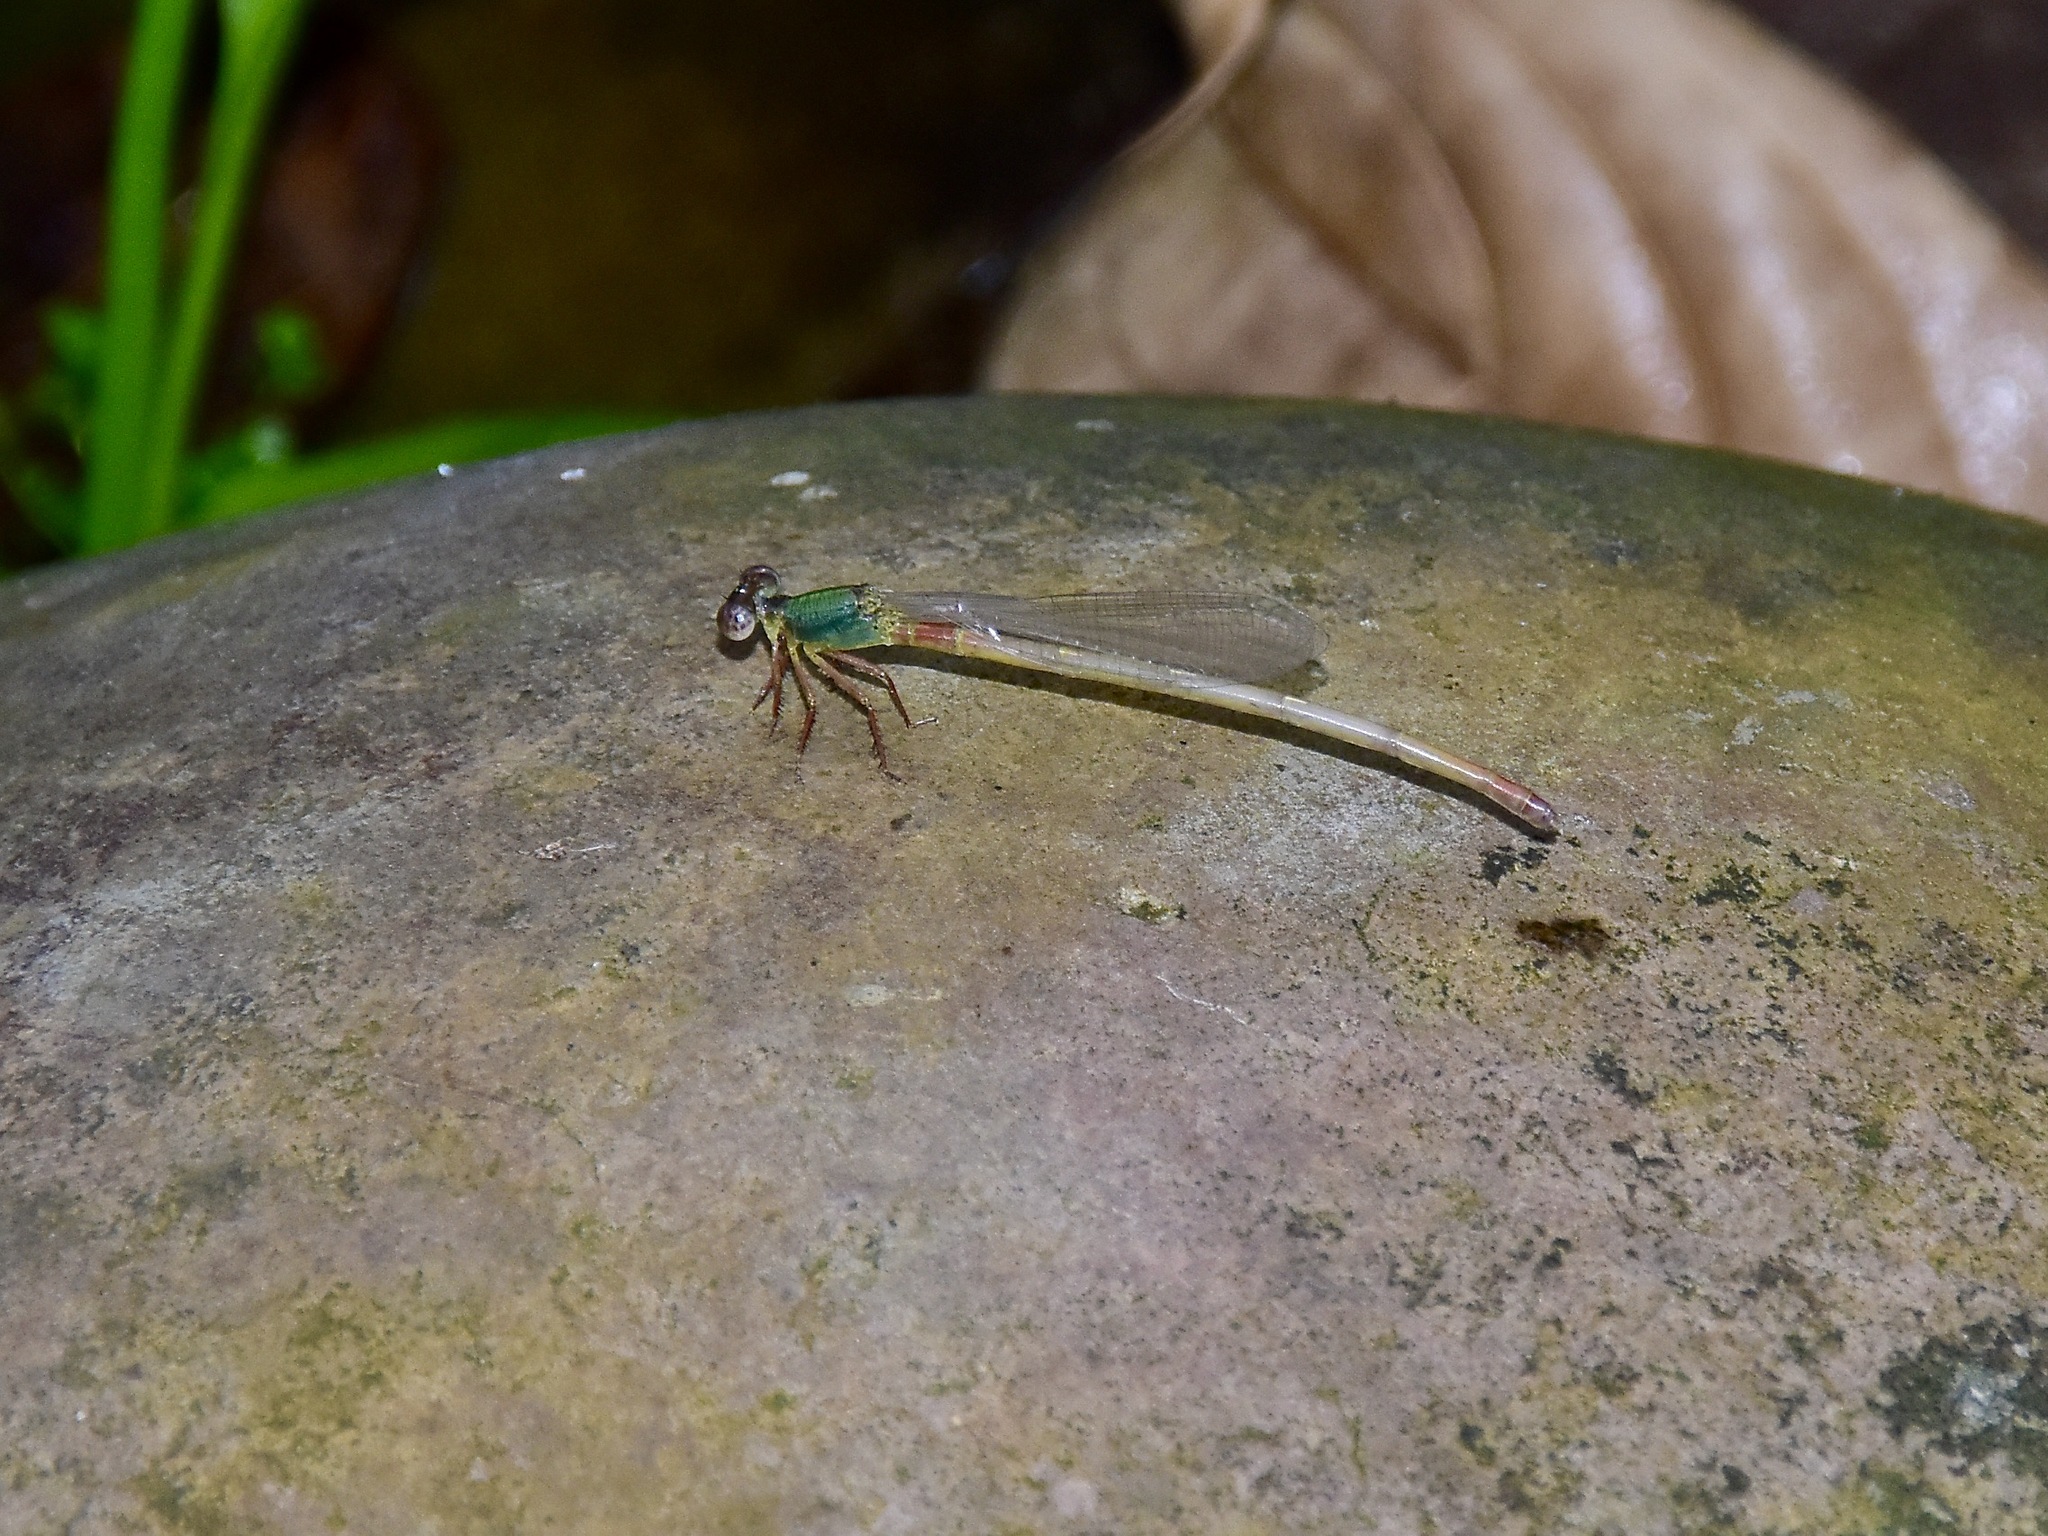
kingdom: Animalia
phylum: Arthropoda
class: Insecta
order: Odonata
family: Coenagrionidae
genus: Ceriagrion
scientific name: Ceriagrion cerinorubellum
